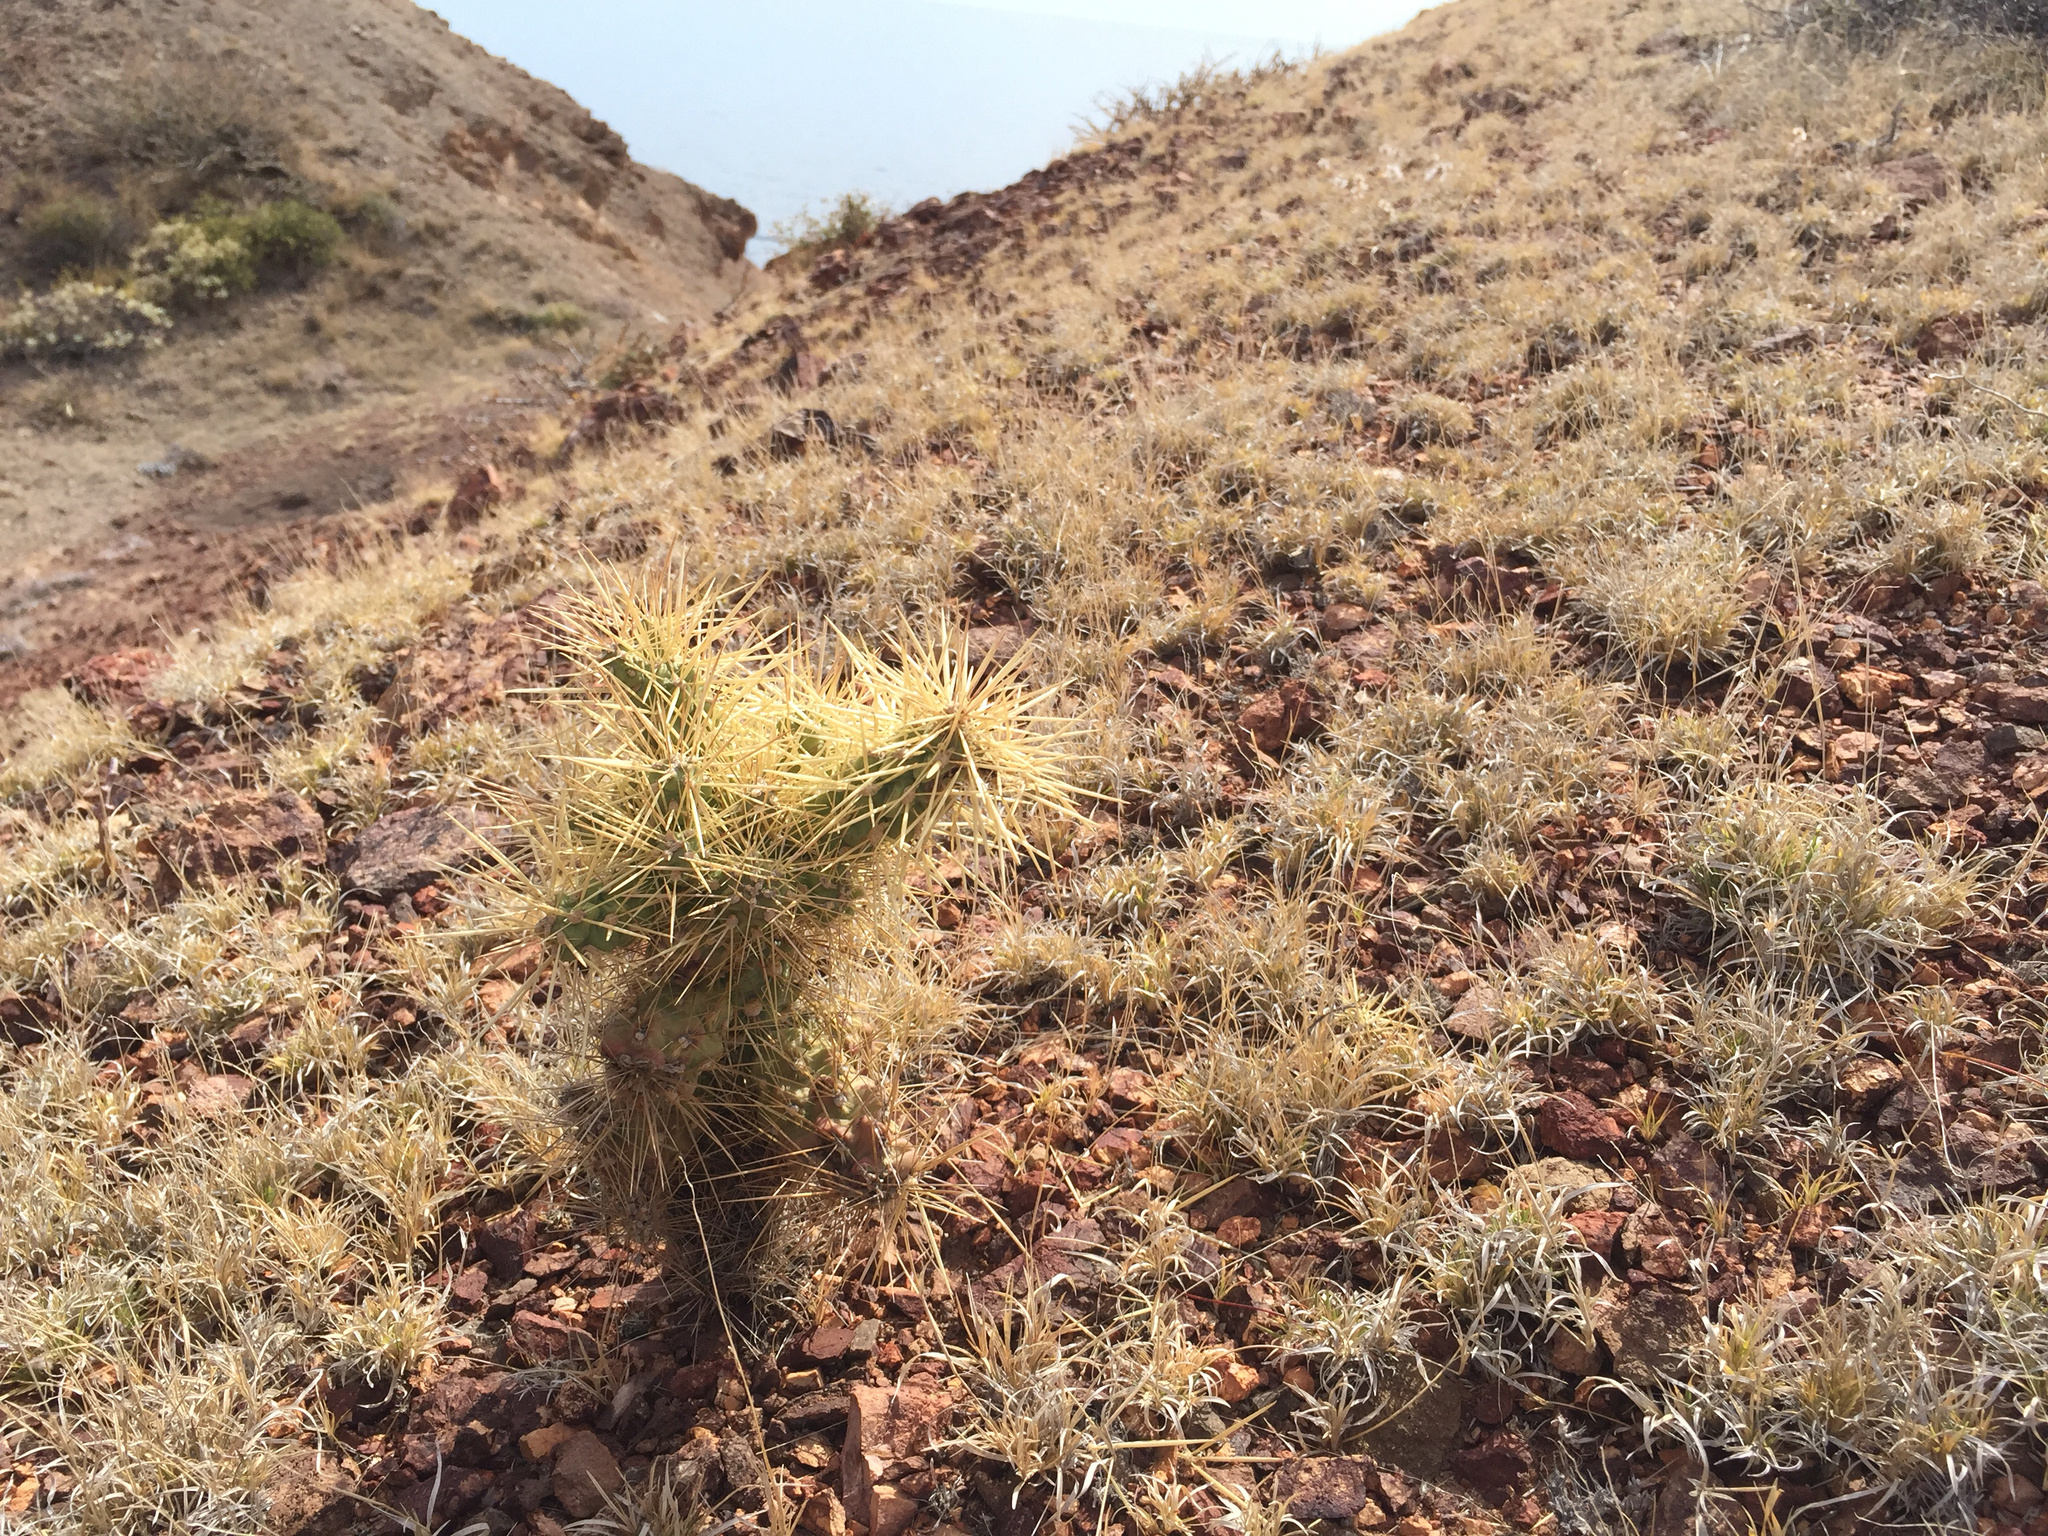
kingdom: Plantae
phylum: Tracheophyta
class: Magnoliopsida
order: Caryophyllales
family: Cactaceae
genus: Cylindropuntia
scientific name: Cylindropuntia fulgida
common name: Jumping cholla
